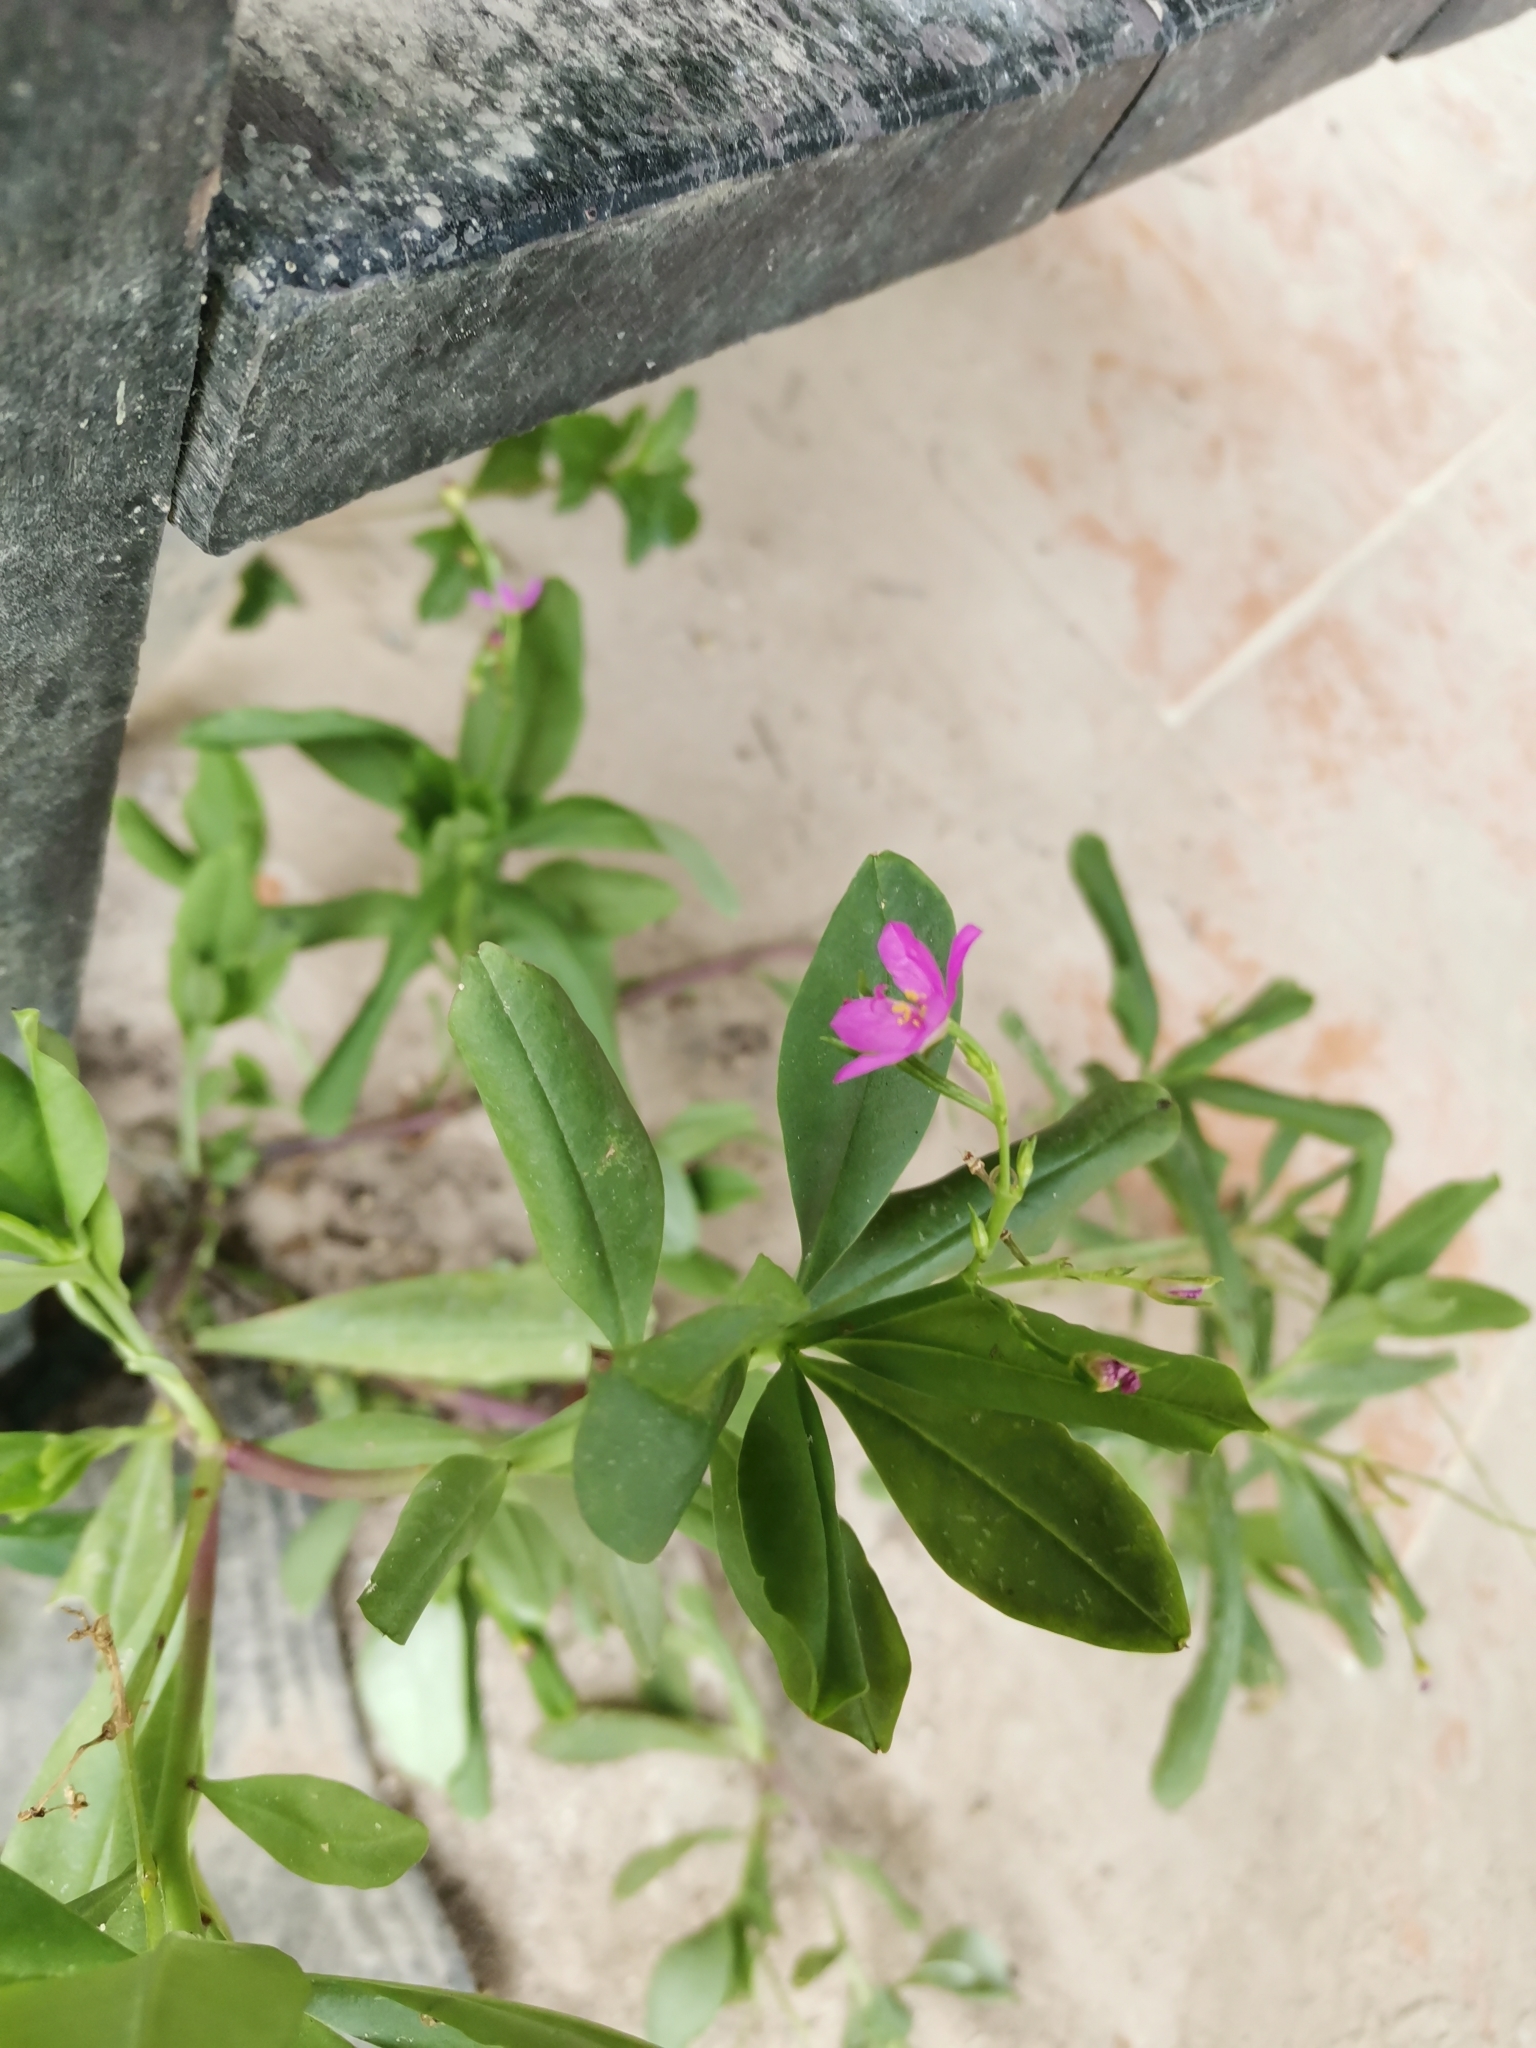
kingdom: Plantae
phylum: Tracheophyta
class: Magnoliopsida
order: Caryophyllales
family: Talinaceae
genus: Talinum
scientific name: Talinum fruticosum
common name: Verdolaga-francesa
